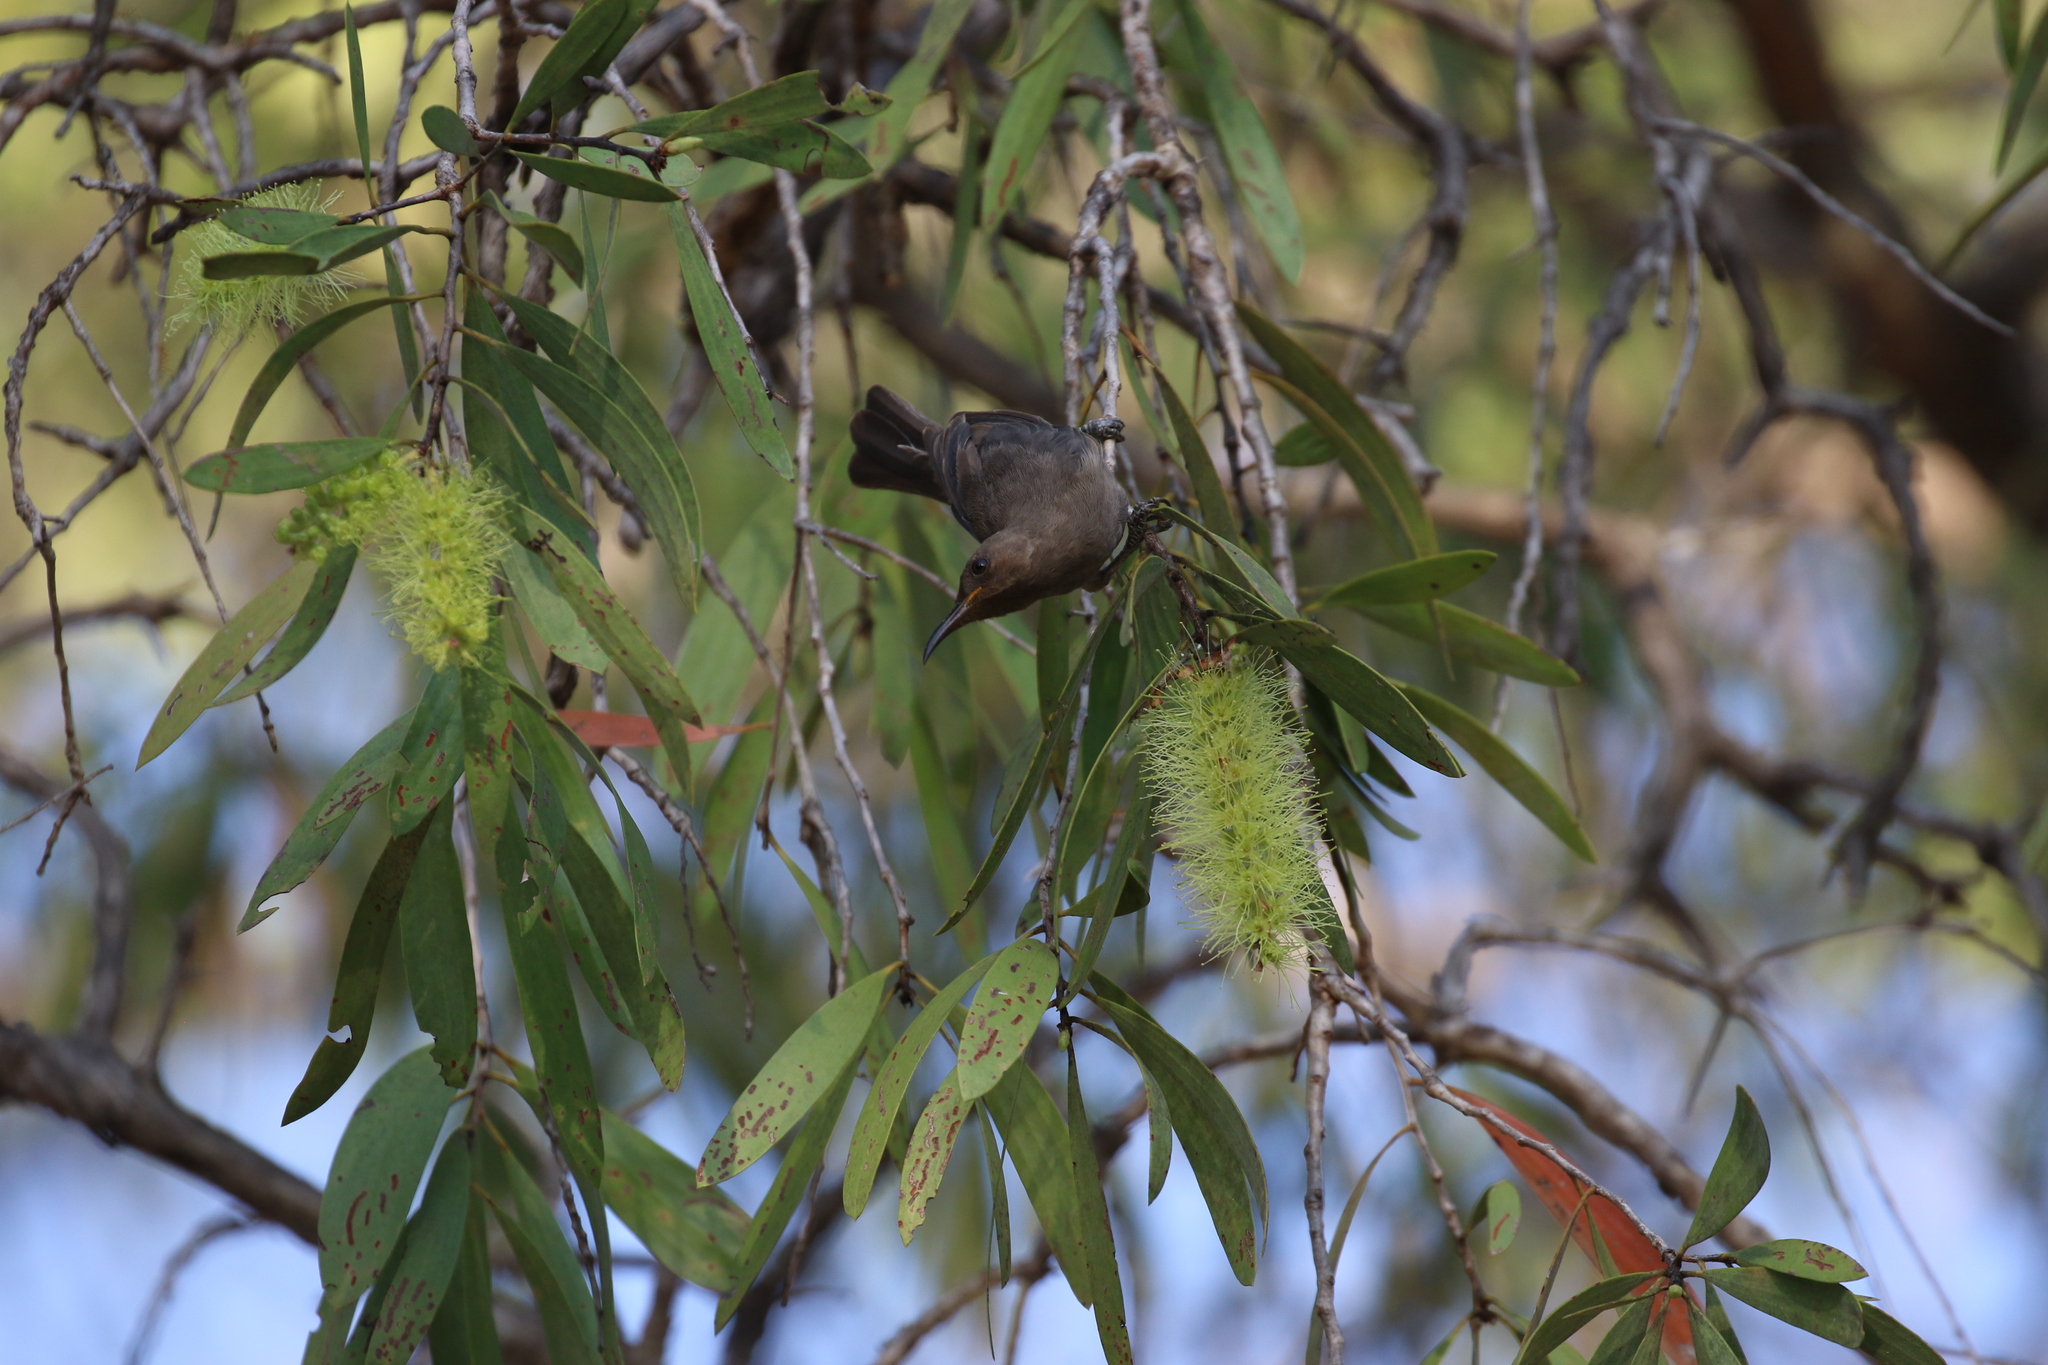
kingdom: Animalia
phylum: Chordata
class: Aves
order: Passeriformes
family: Meliphagidae
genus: Myzomela
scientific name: Myzomela obscura
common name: Dusky myzomela
